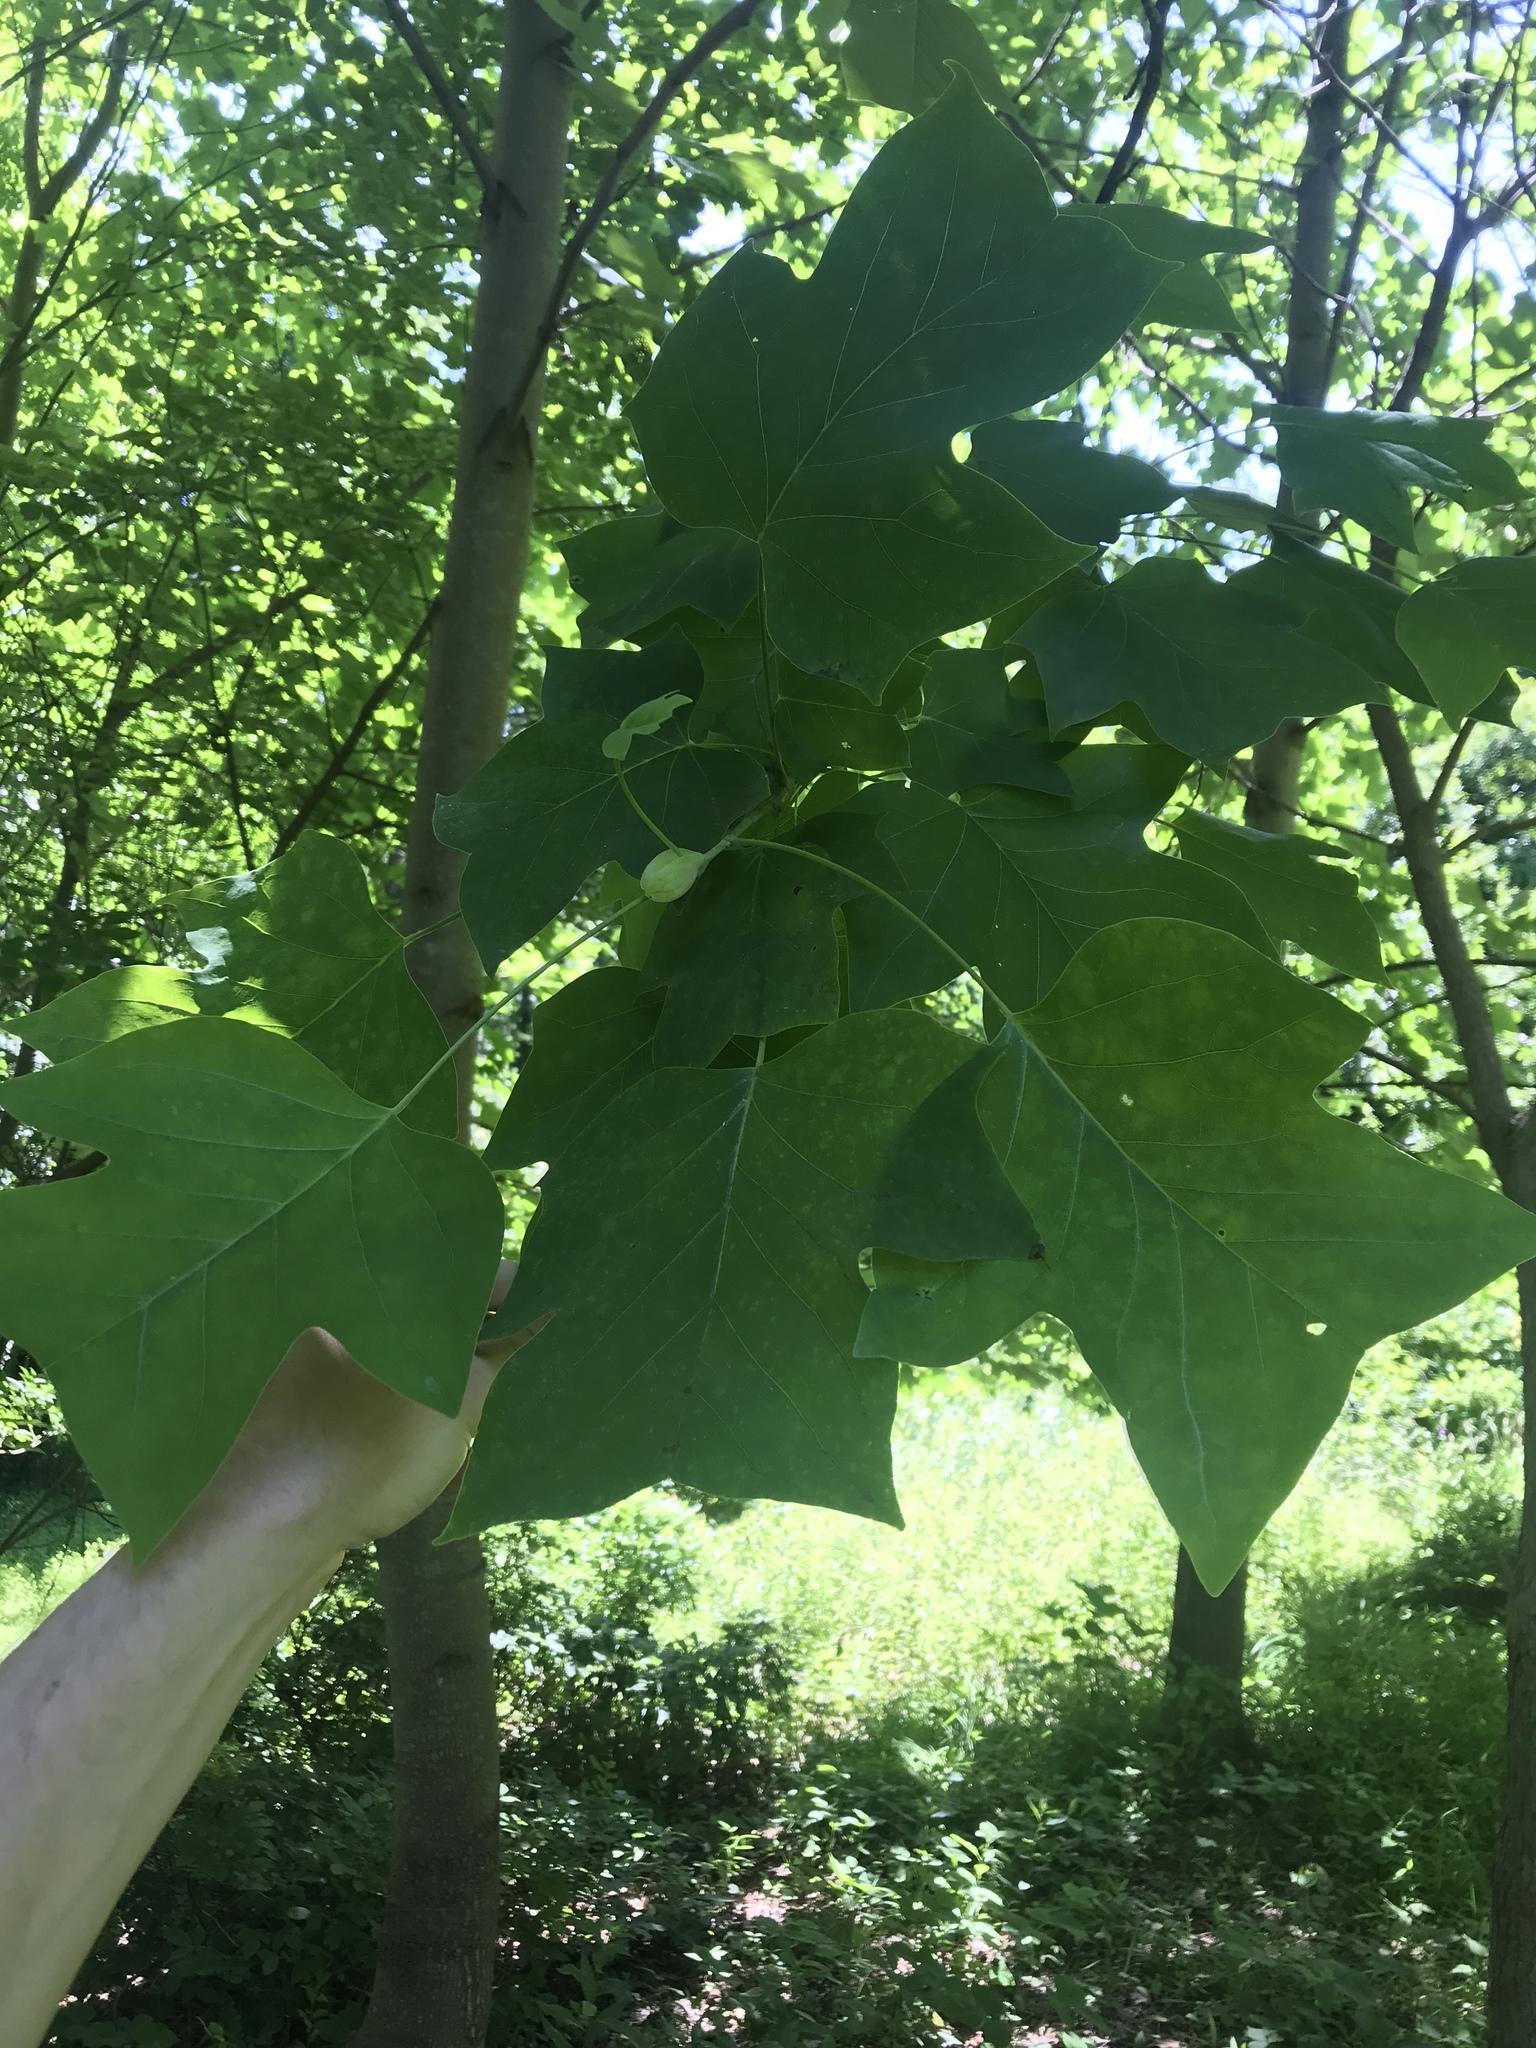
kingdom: Plantae
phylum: Tracheophyta
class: Magnoliopsida
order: Magnoliales
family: Magnoliaceae
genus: Liriodendron
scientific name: Liriodendron tulipifera
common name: Tulip tree
